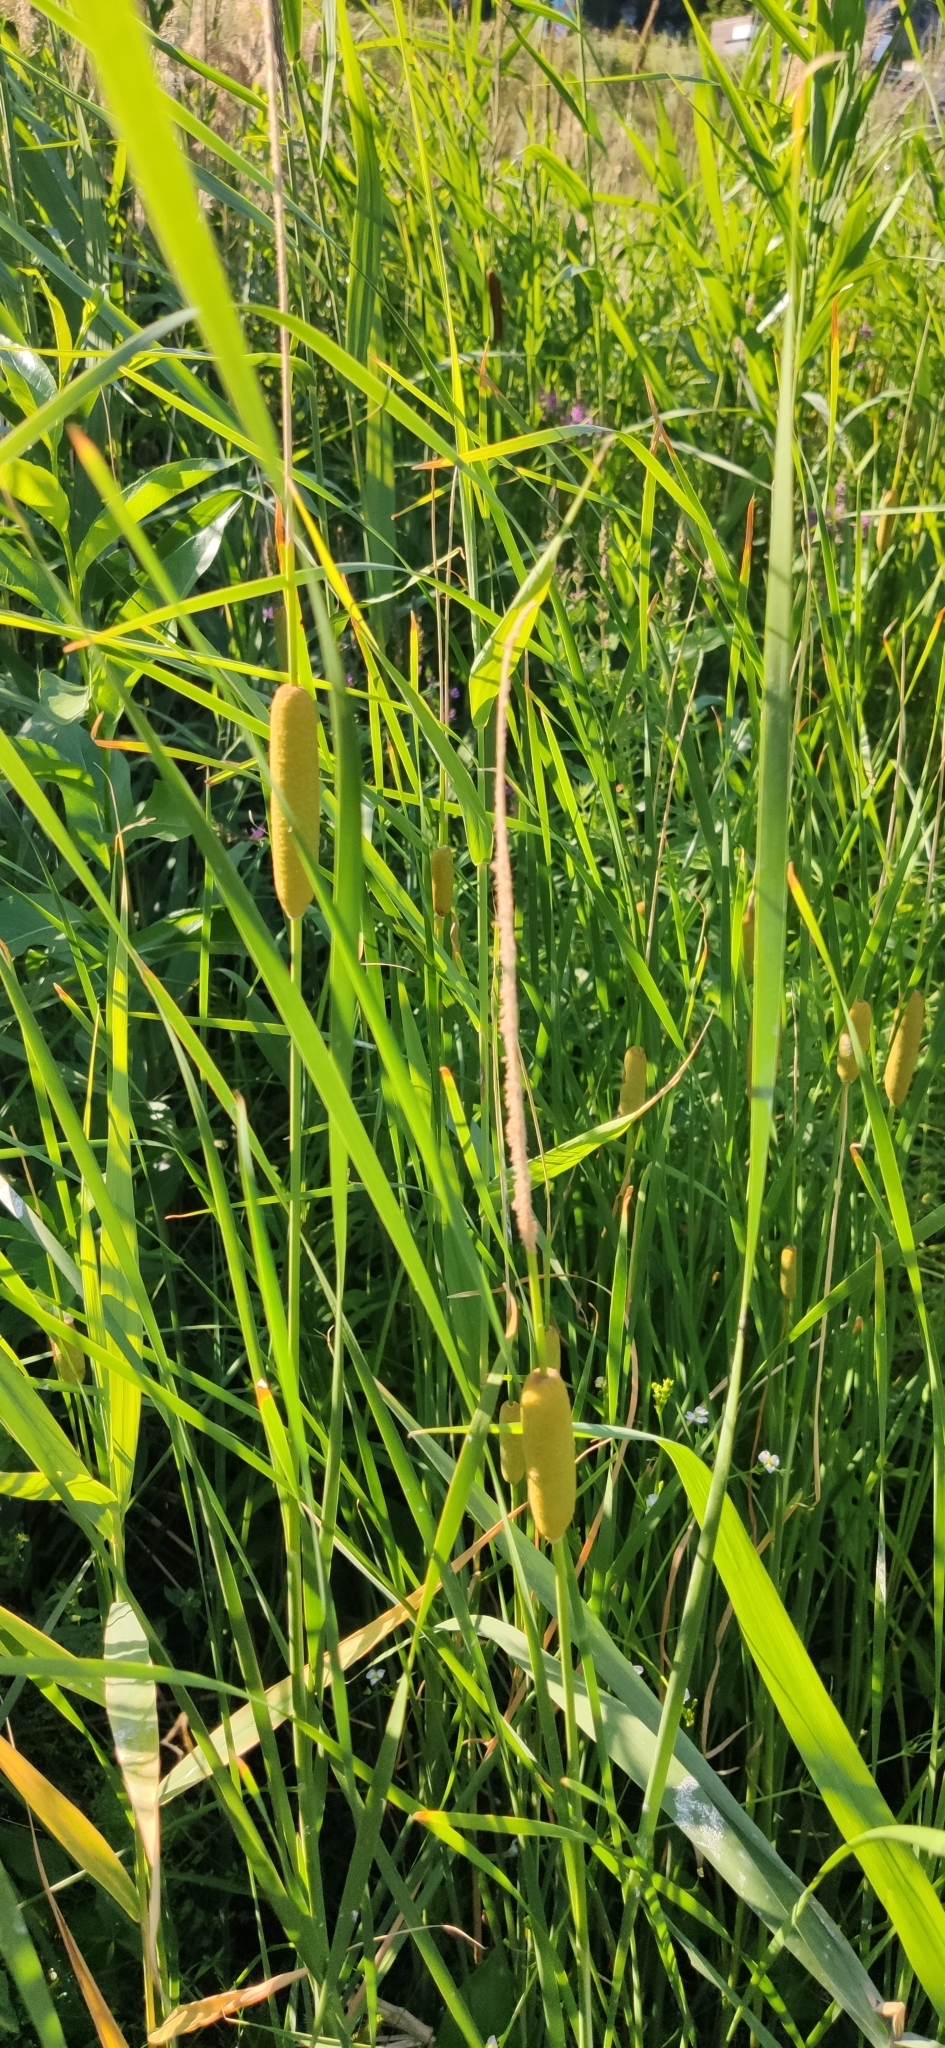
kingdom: Plantae
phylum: Tracheophyta
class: Liliopsida
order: Poales
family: Typhaceae
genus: Typha
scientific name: Typha laxmannii
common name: Laxman’s bulrush
